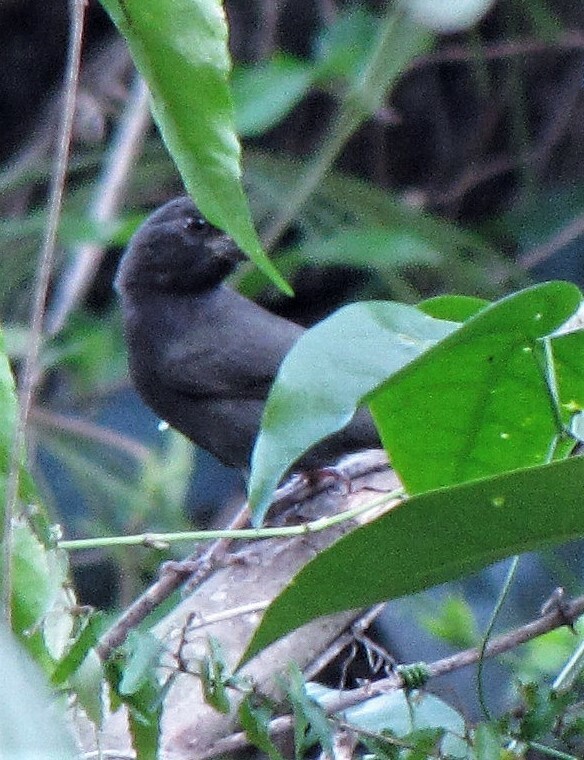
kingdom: Animalia
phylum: Chordata
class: Aves
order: Passeriformes
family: Cardinalidae
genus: Amaurospiza
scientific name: Amaurospiza moesta
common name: Blackish-blue seedeater
